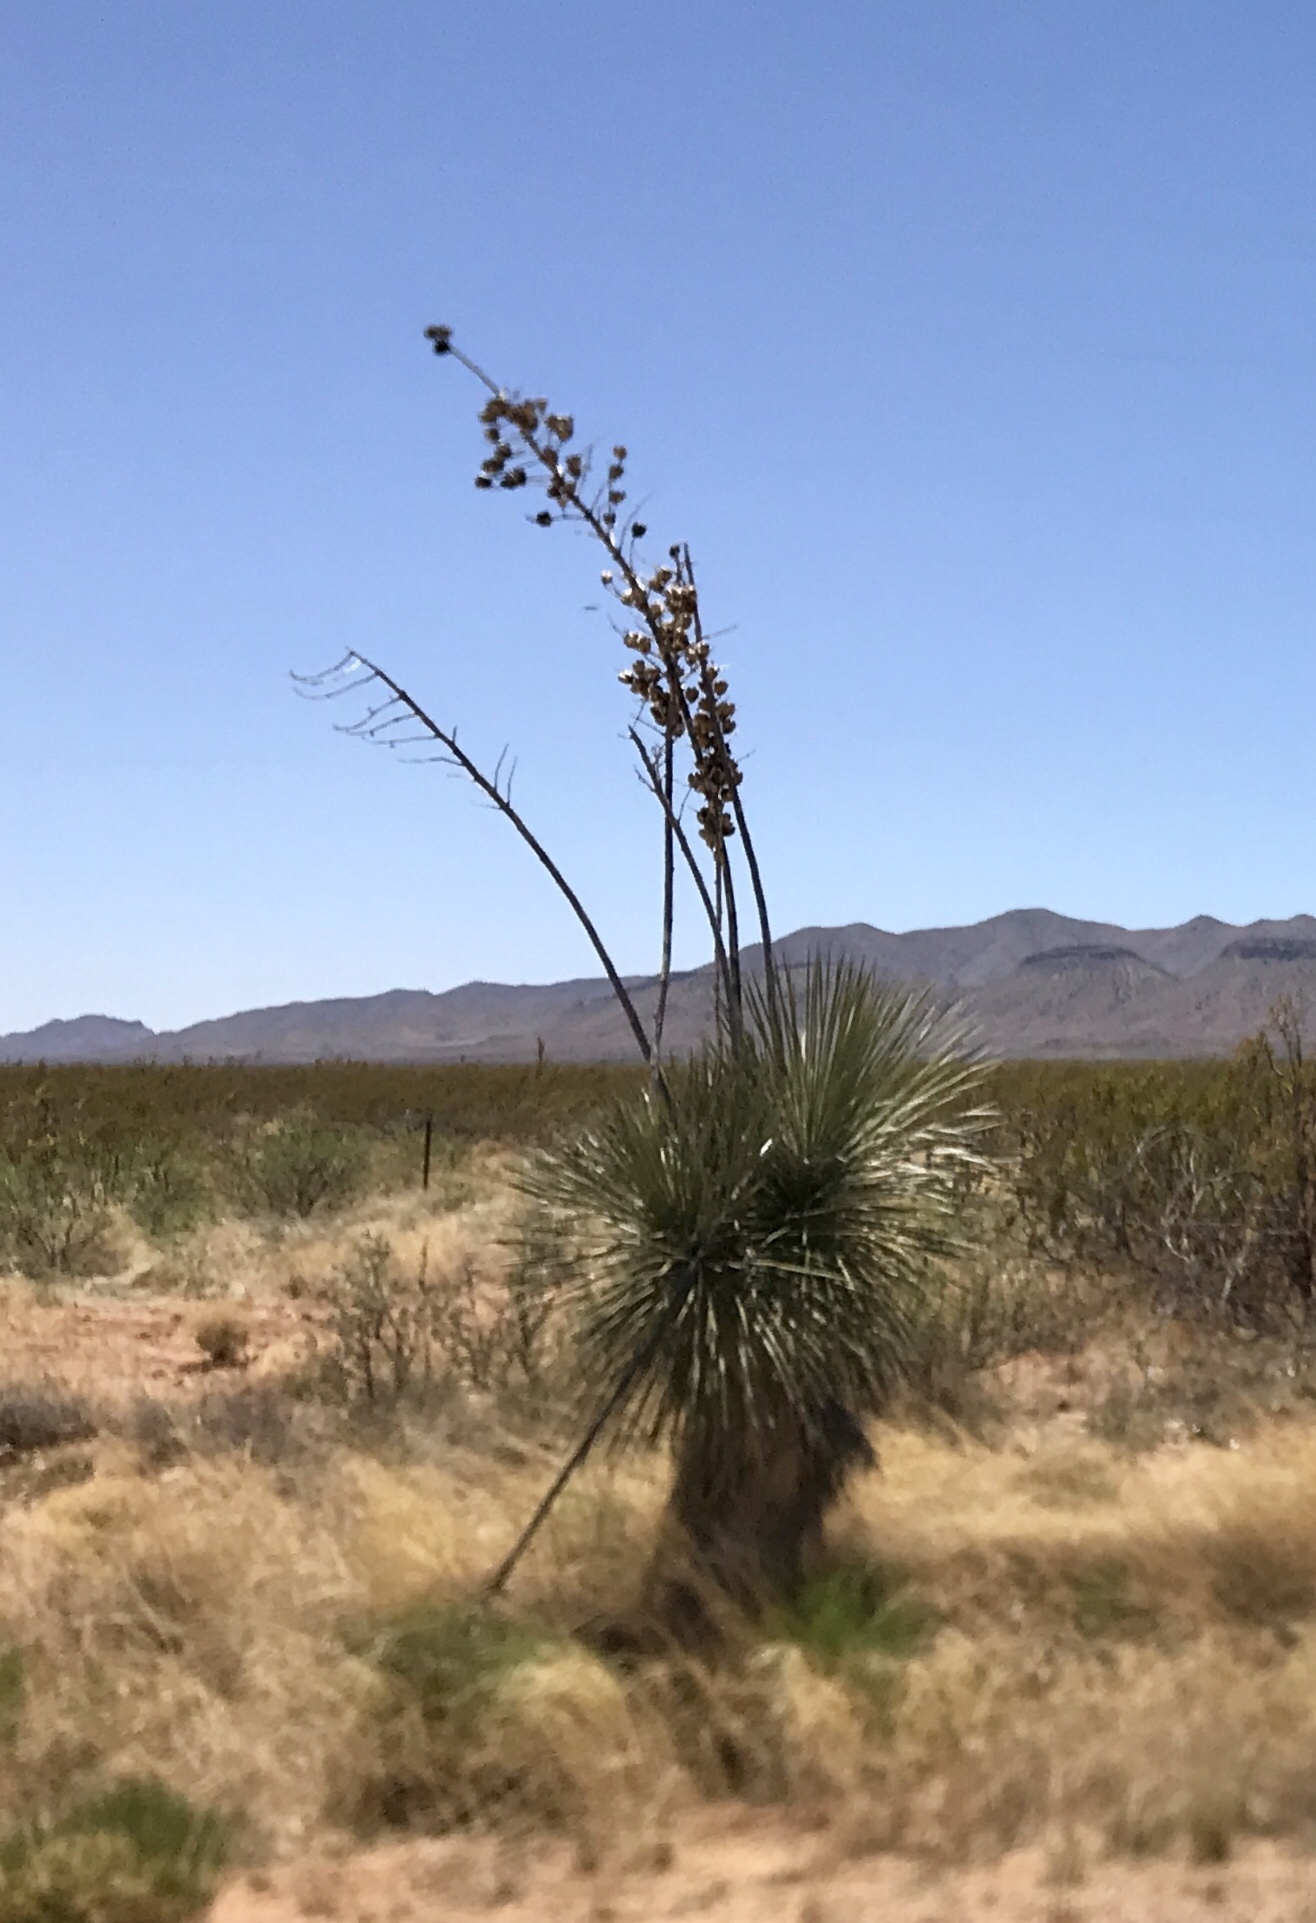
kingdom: Plantae
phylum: Tracheophyta
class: Liliopsida
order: Asparagales
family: Asparagaceae
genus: Yucca
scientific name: Yucca elata
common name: Palmella
